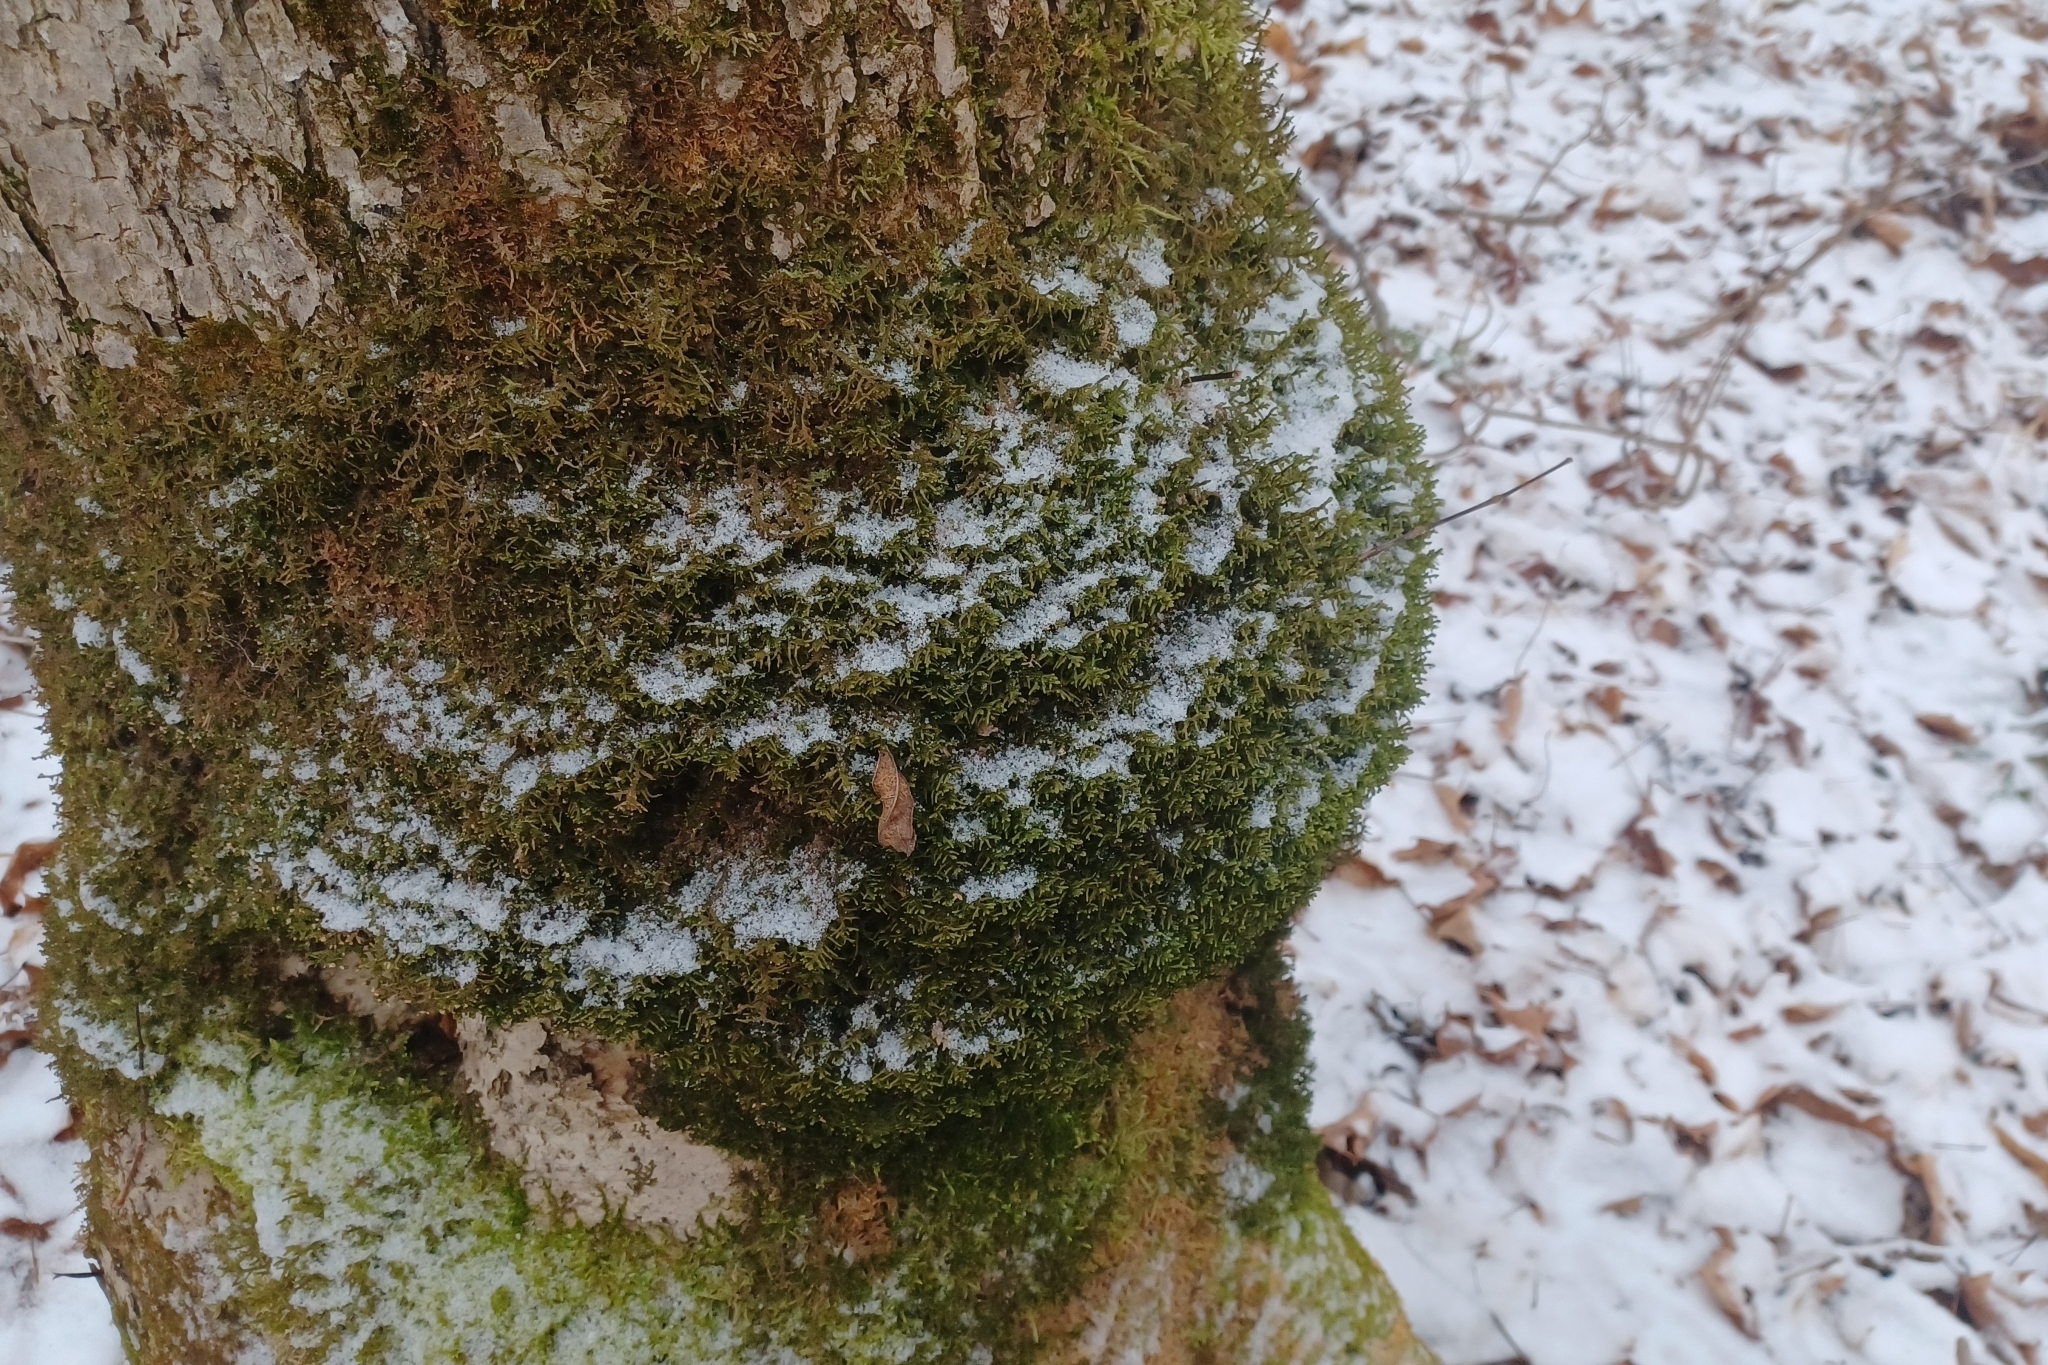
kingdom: Plantae
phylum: Marchantiophyta
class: Jungermanniopsida
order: Porellales
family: Porellaceae
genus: Porella
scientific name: Porella platyphylla
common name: Wall scalewort
